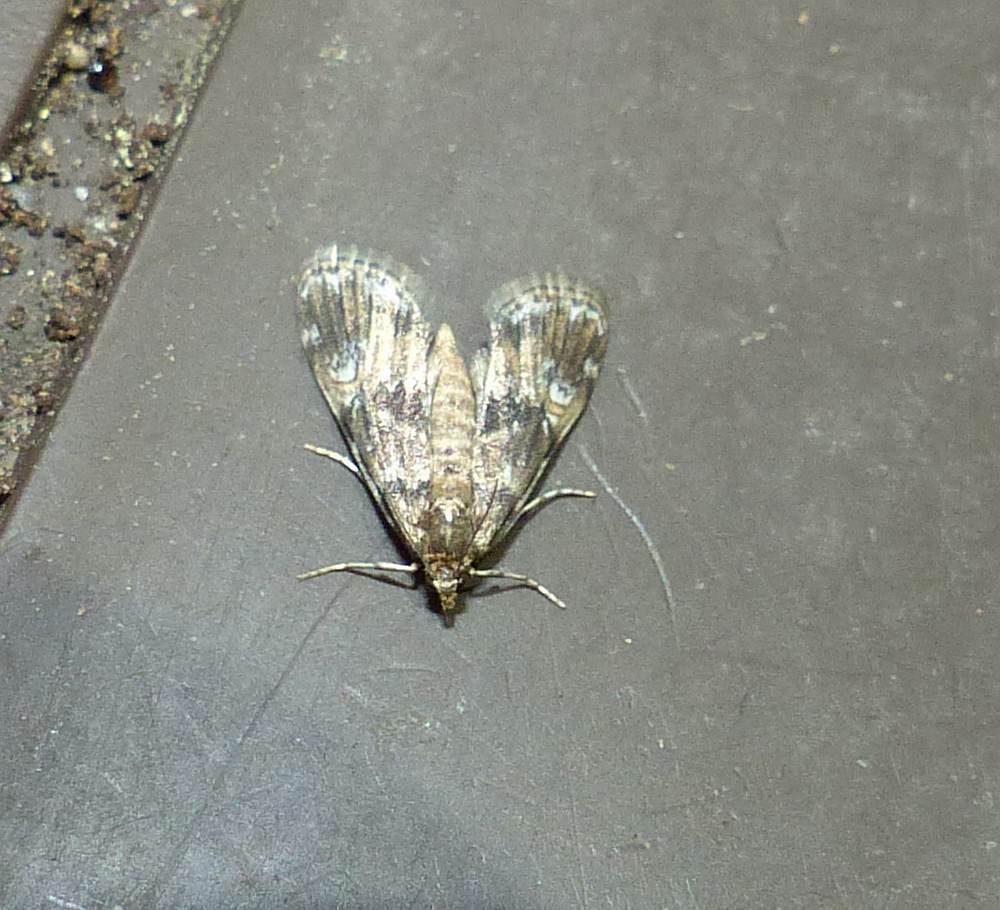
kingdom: Animalia
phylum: Arthropoda
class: Insecta
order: Lepidoptera
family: Crambidae
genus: Elophila
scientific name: Elophila obliteralis
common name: Waterlily leafcutter moth
